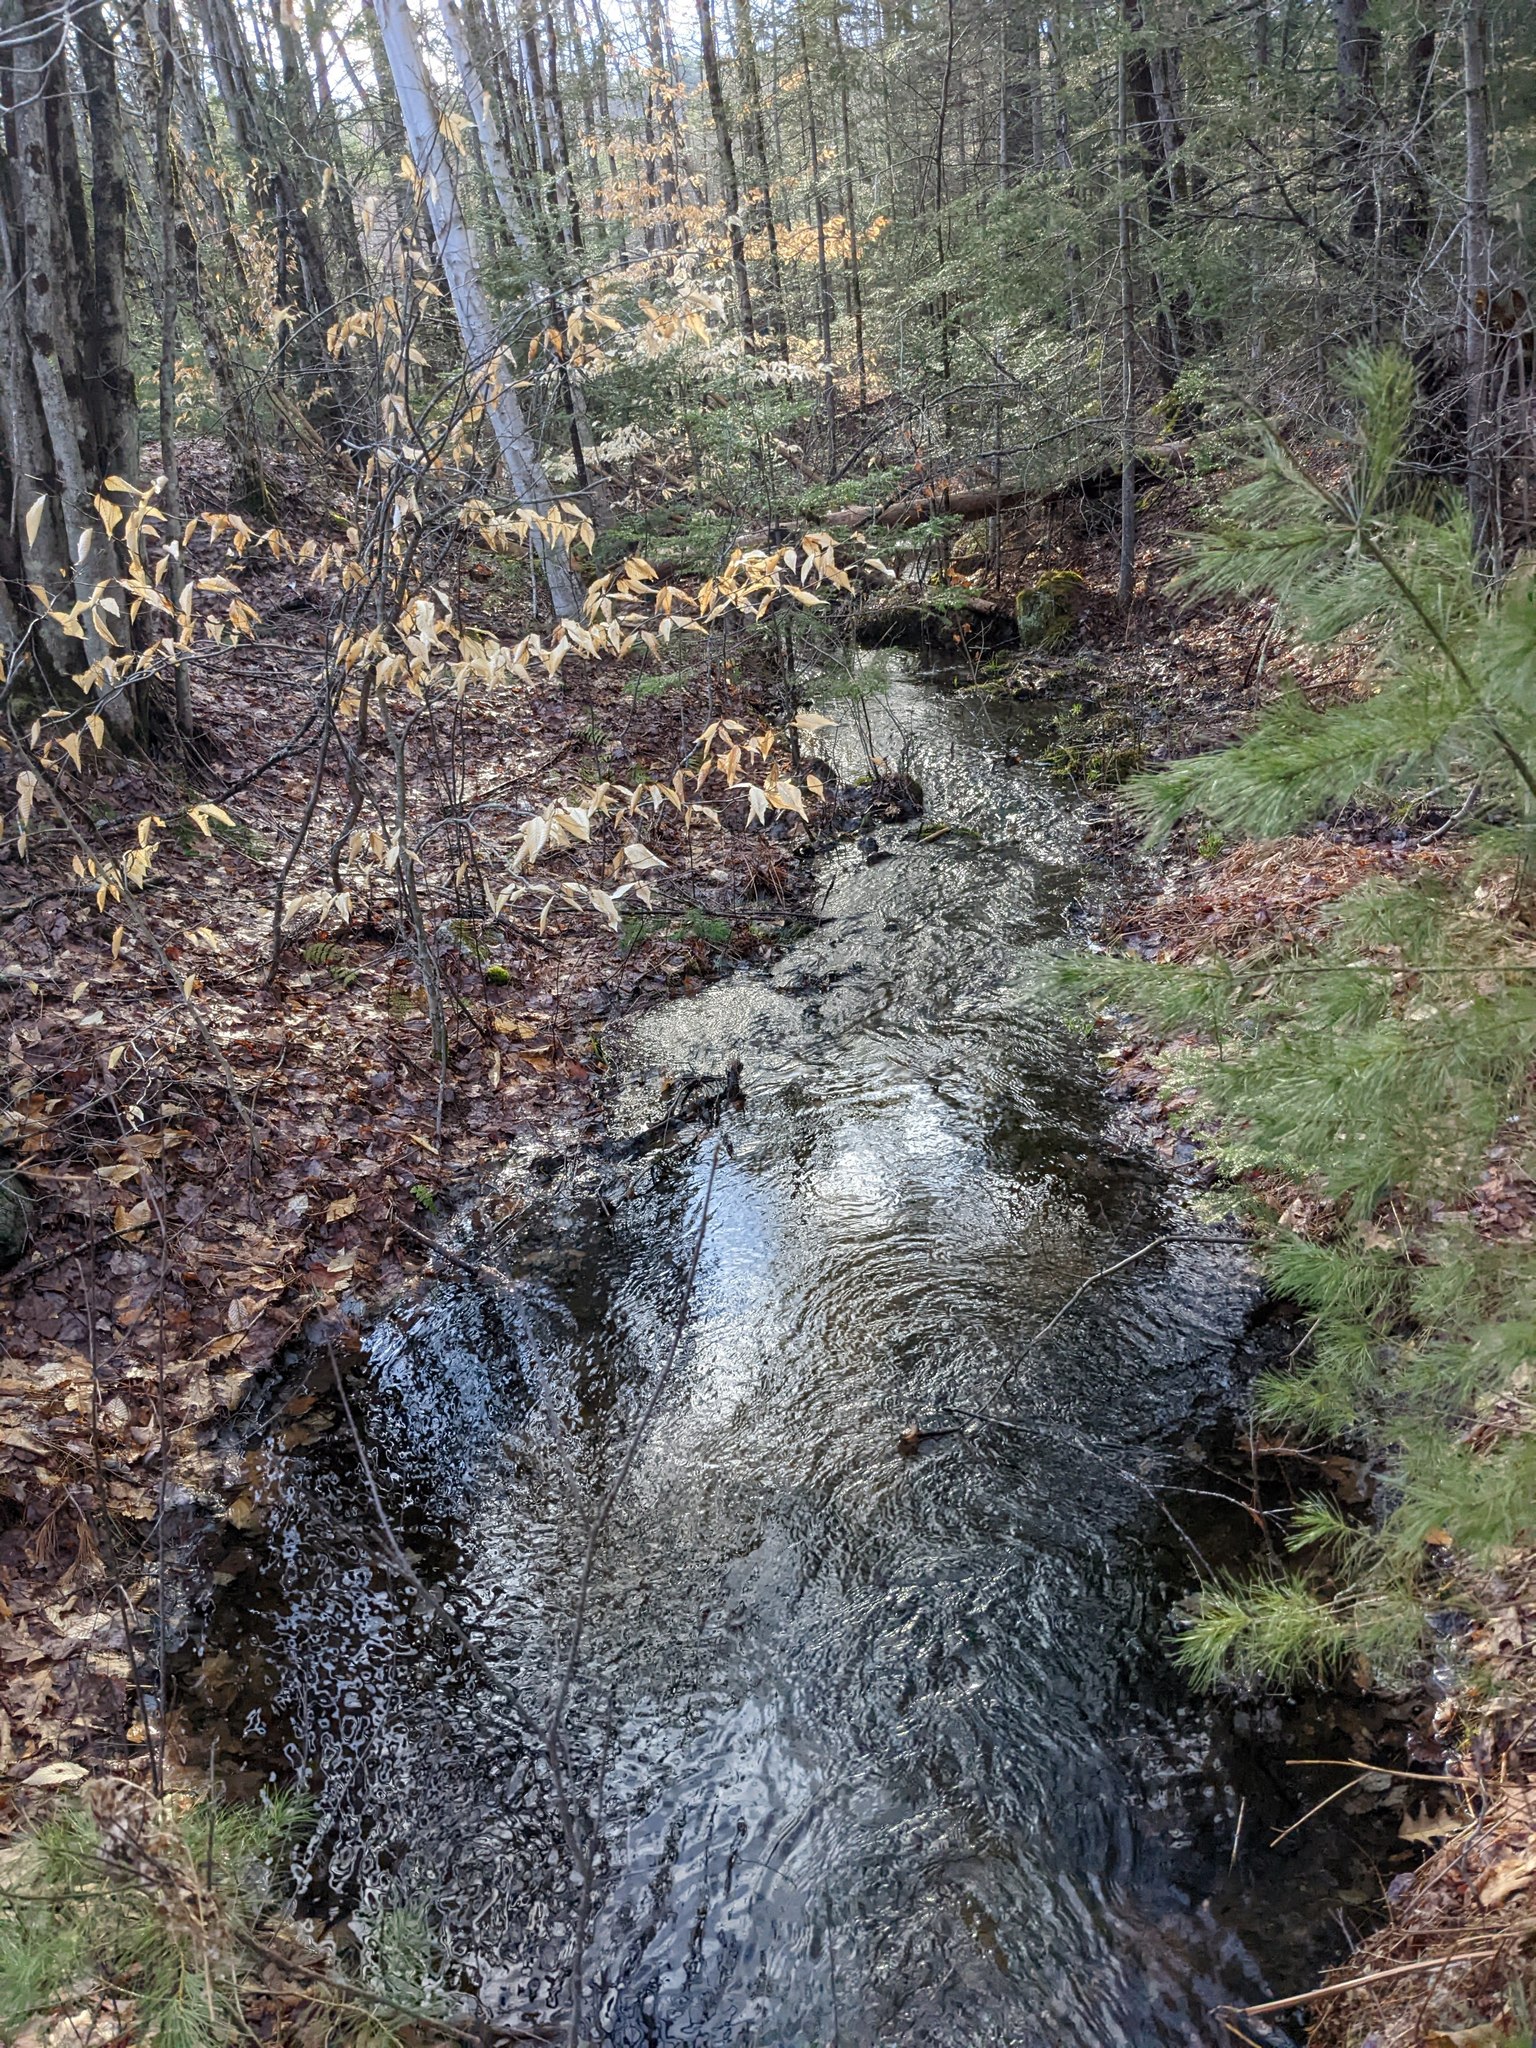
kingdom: Plantae
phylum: Tracheophyta
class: Magnoliopsida
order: Fagales
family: Fagaceae
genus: Fagus
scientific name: Fagus grandifolia
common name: American beech
